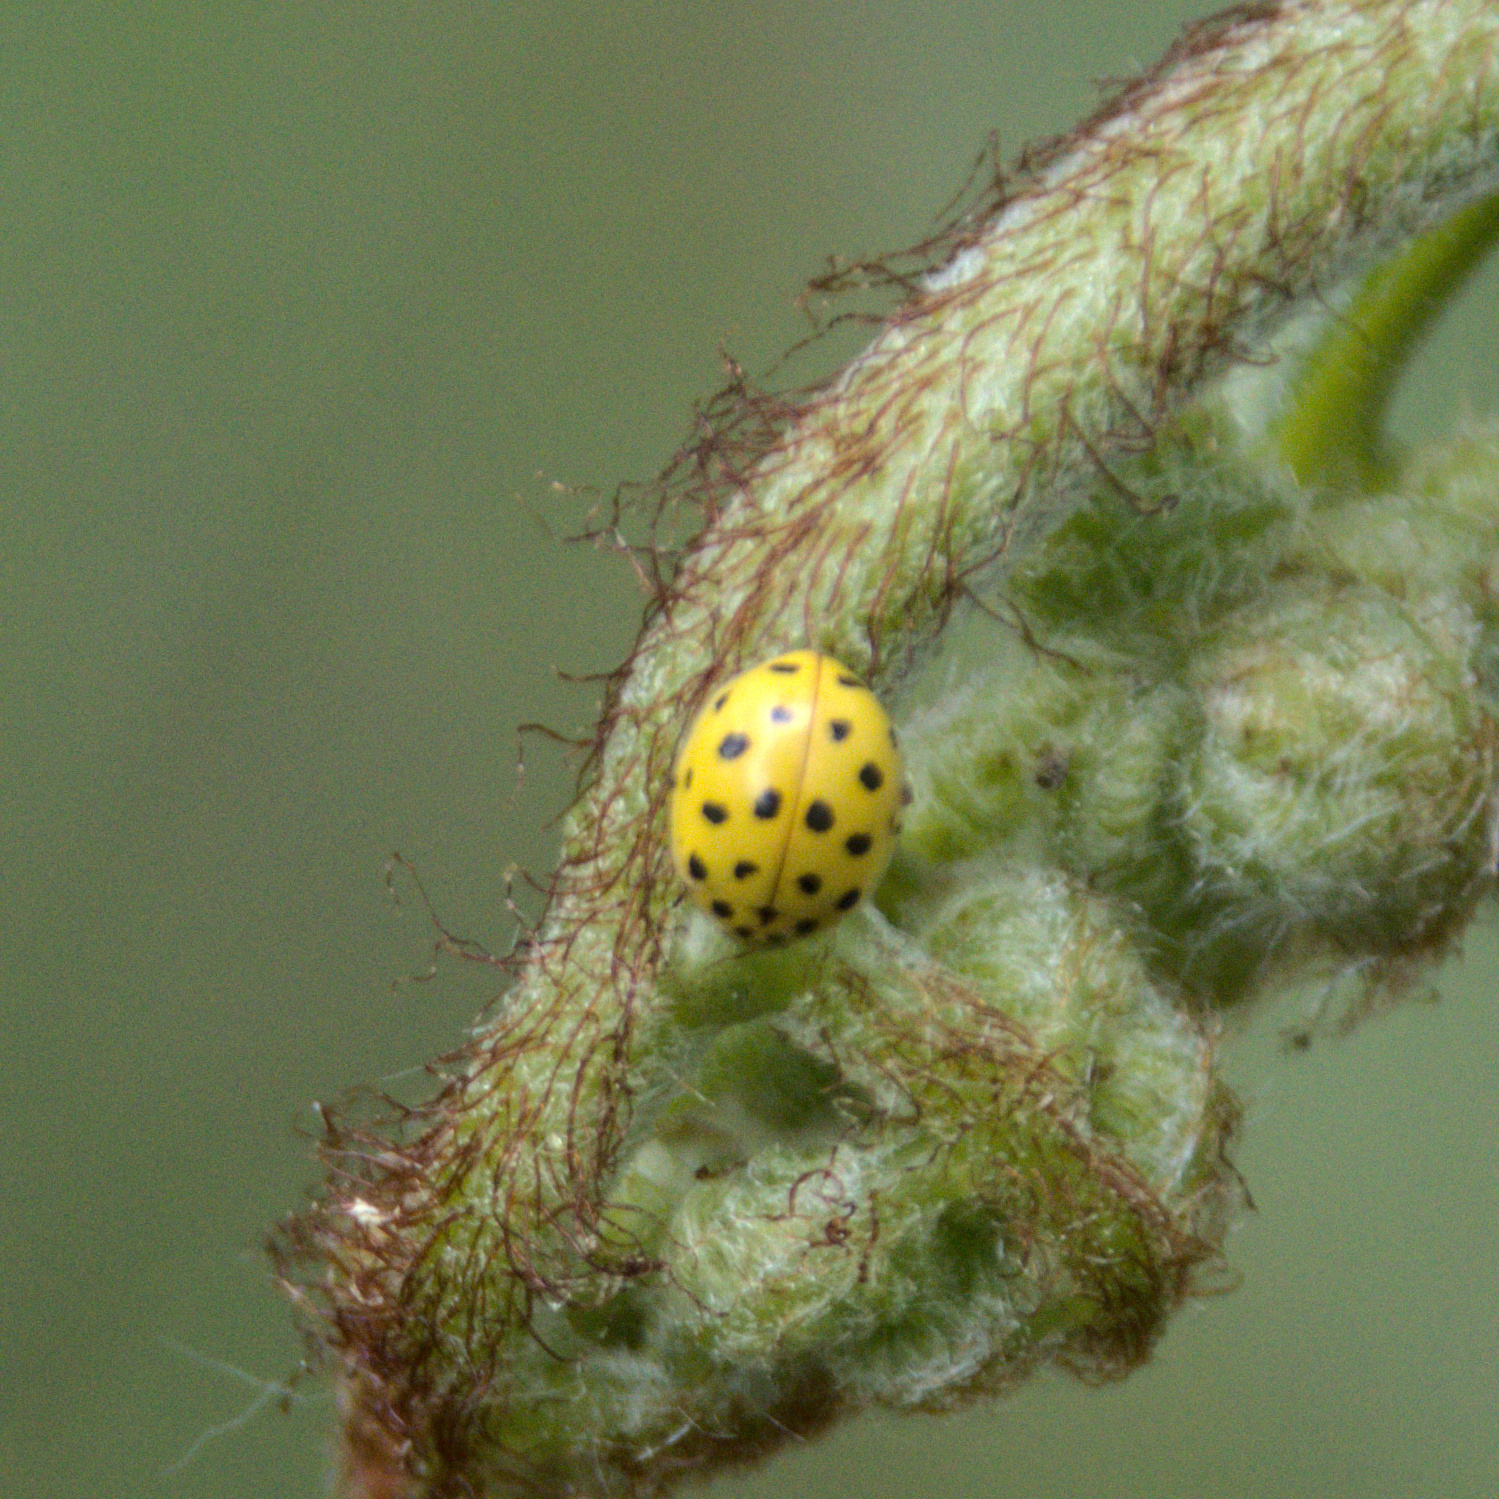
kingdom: Animalia
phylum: Arthropoda
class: Insecta
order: Coleoptera
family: Coccinellidae
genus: Psyllobora
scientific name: Psyllobora vigintiduopunctata
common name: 22-spot ladybird
